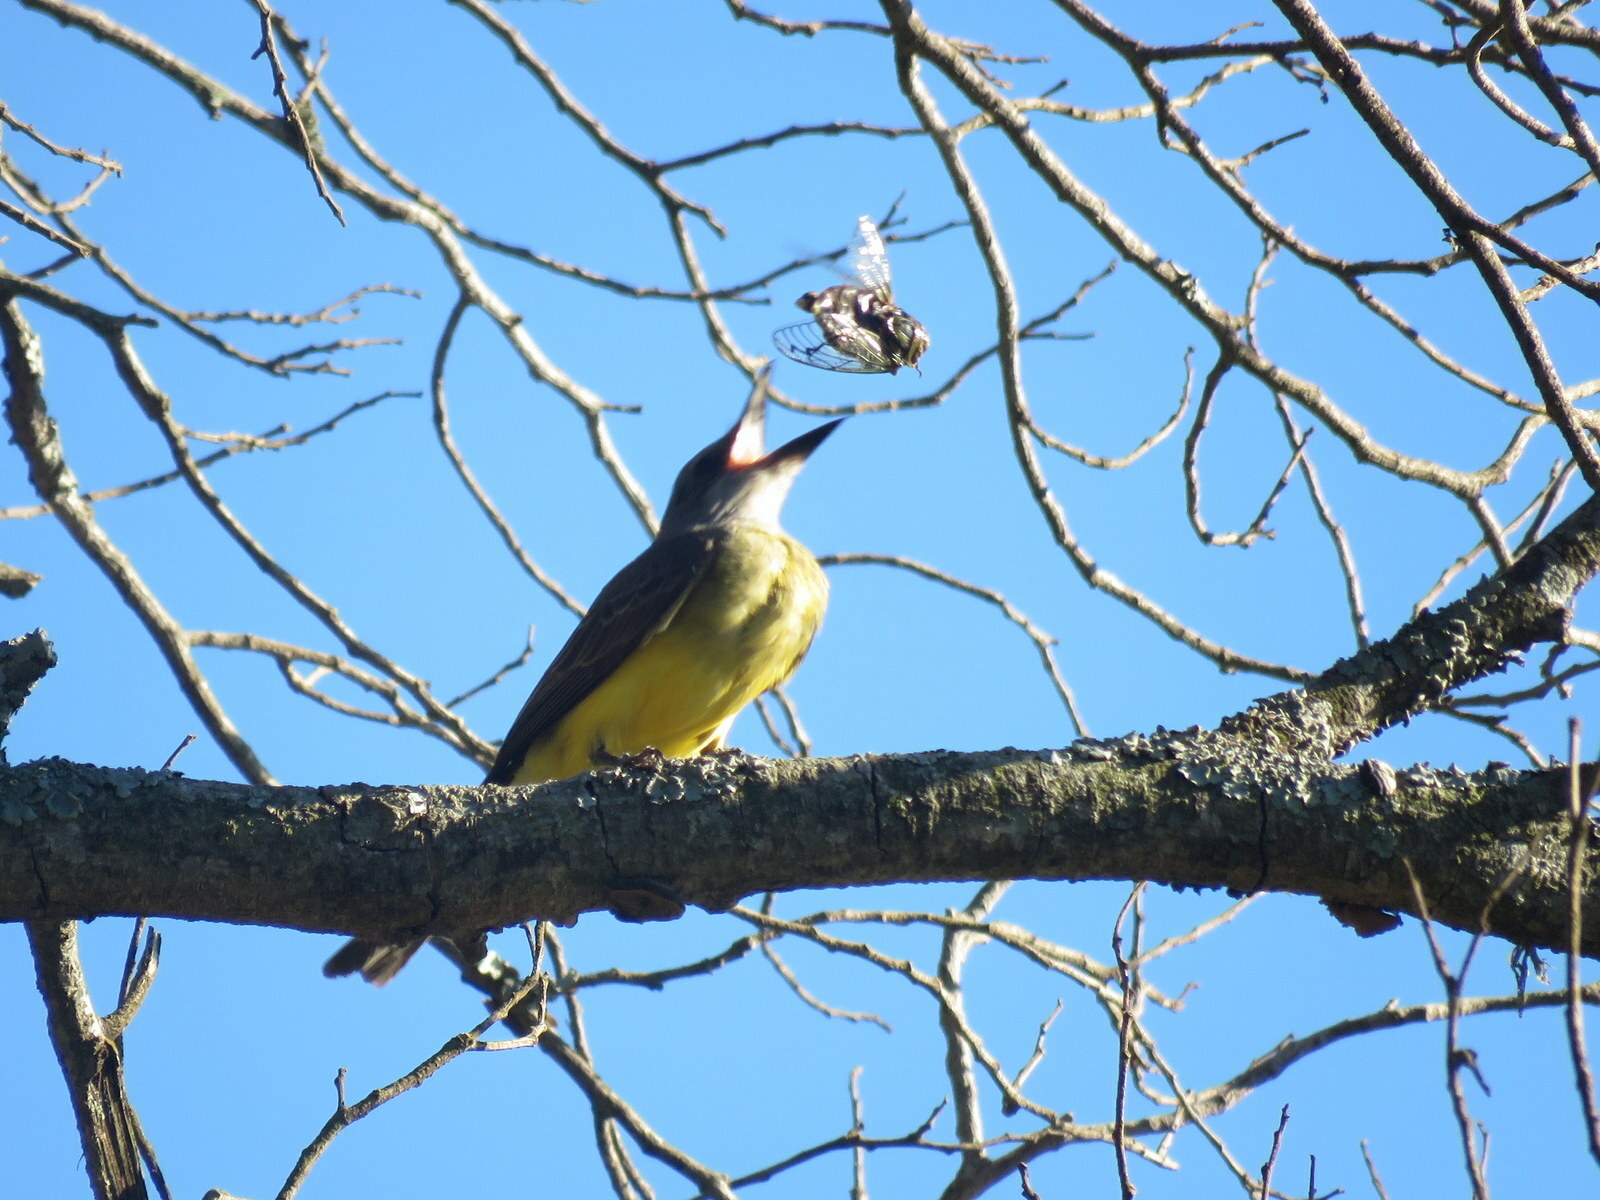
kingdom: Animalia
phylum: Chordata
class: Aves
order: Passeriformes
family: Tyrannidae
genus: Tyrannus
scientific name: Tyrannus melancholicus
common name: Tropical kingbird
